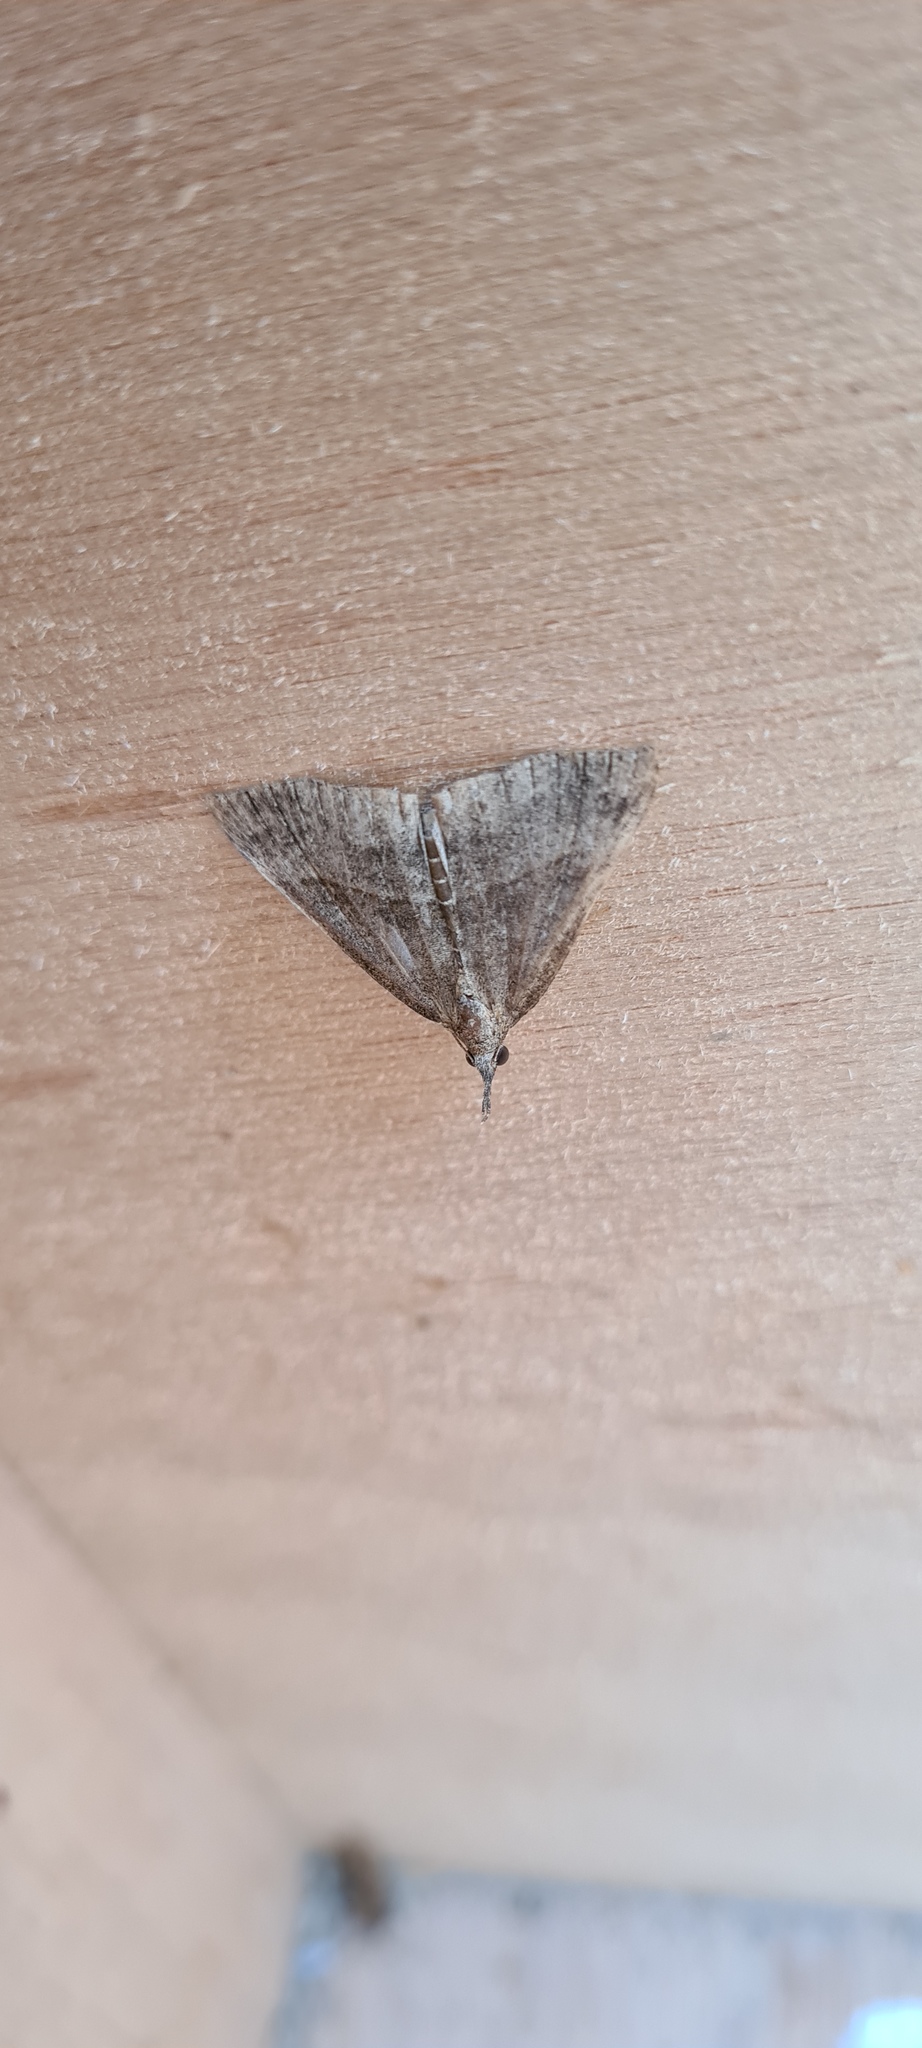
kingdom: Animalia
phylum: Arthropoda
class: Insecta
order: Lepidoptera
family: Erebidae
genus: Hypena
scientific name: Hypena proboscidalis
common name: Snout
